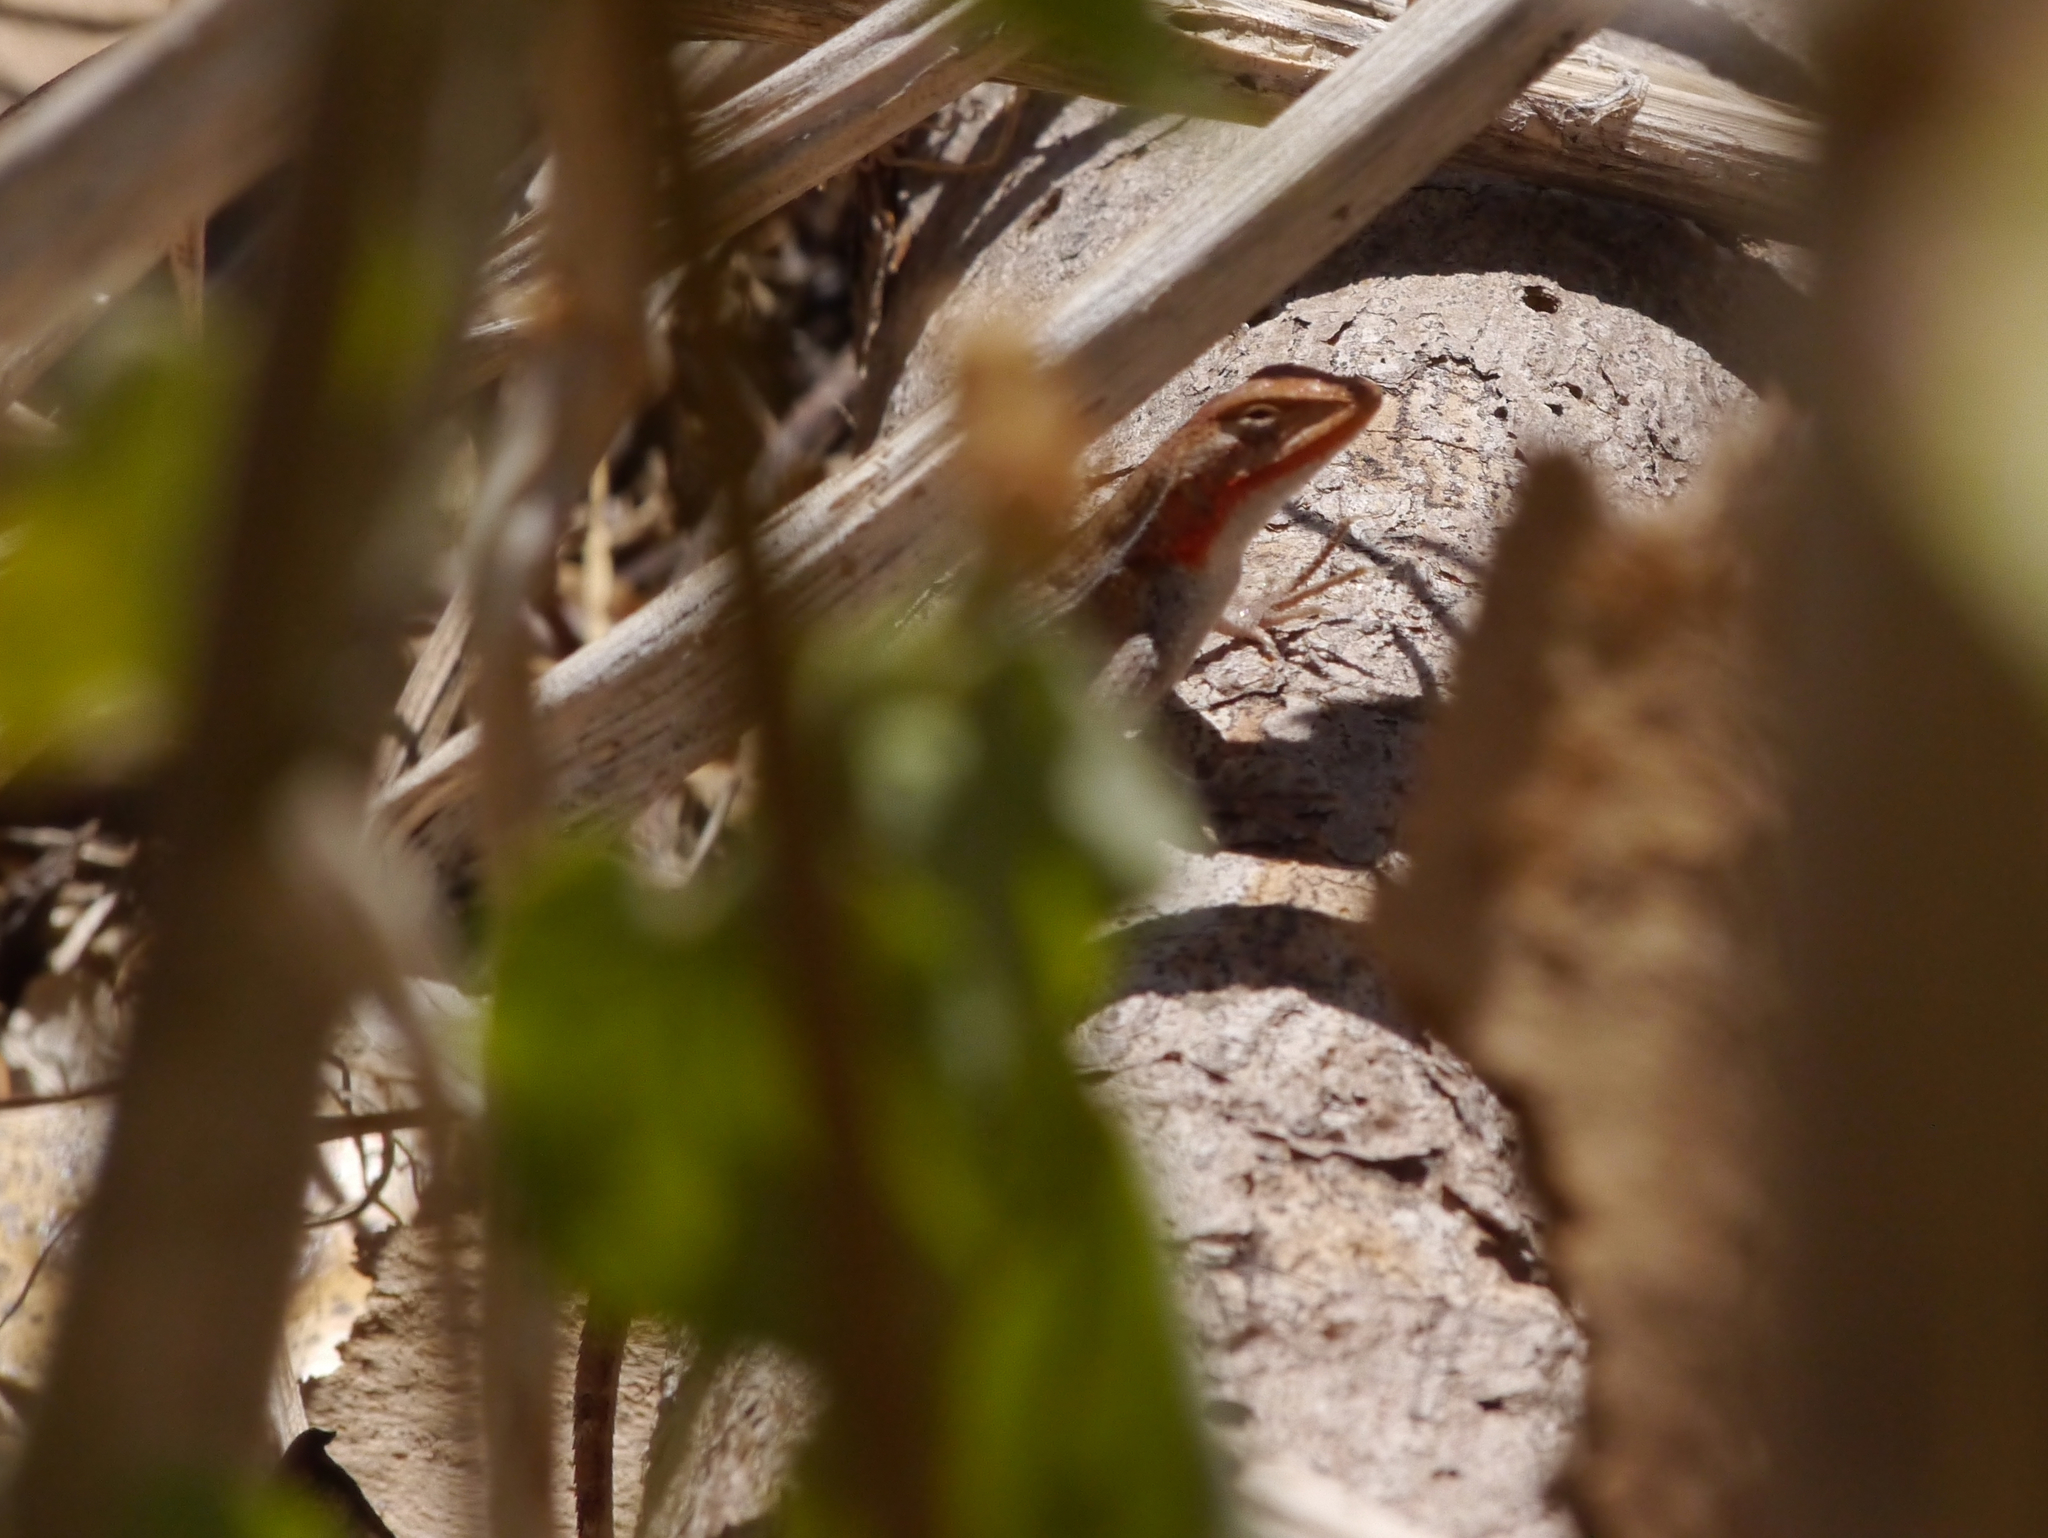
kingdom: Animalia
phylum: Chordata
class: Squamata
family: Phrynosomatidae
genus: Sceloporus
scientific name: Sceloporus chrysostictus
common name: Yellow-spotted spiny lizard
